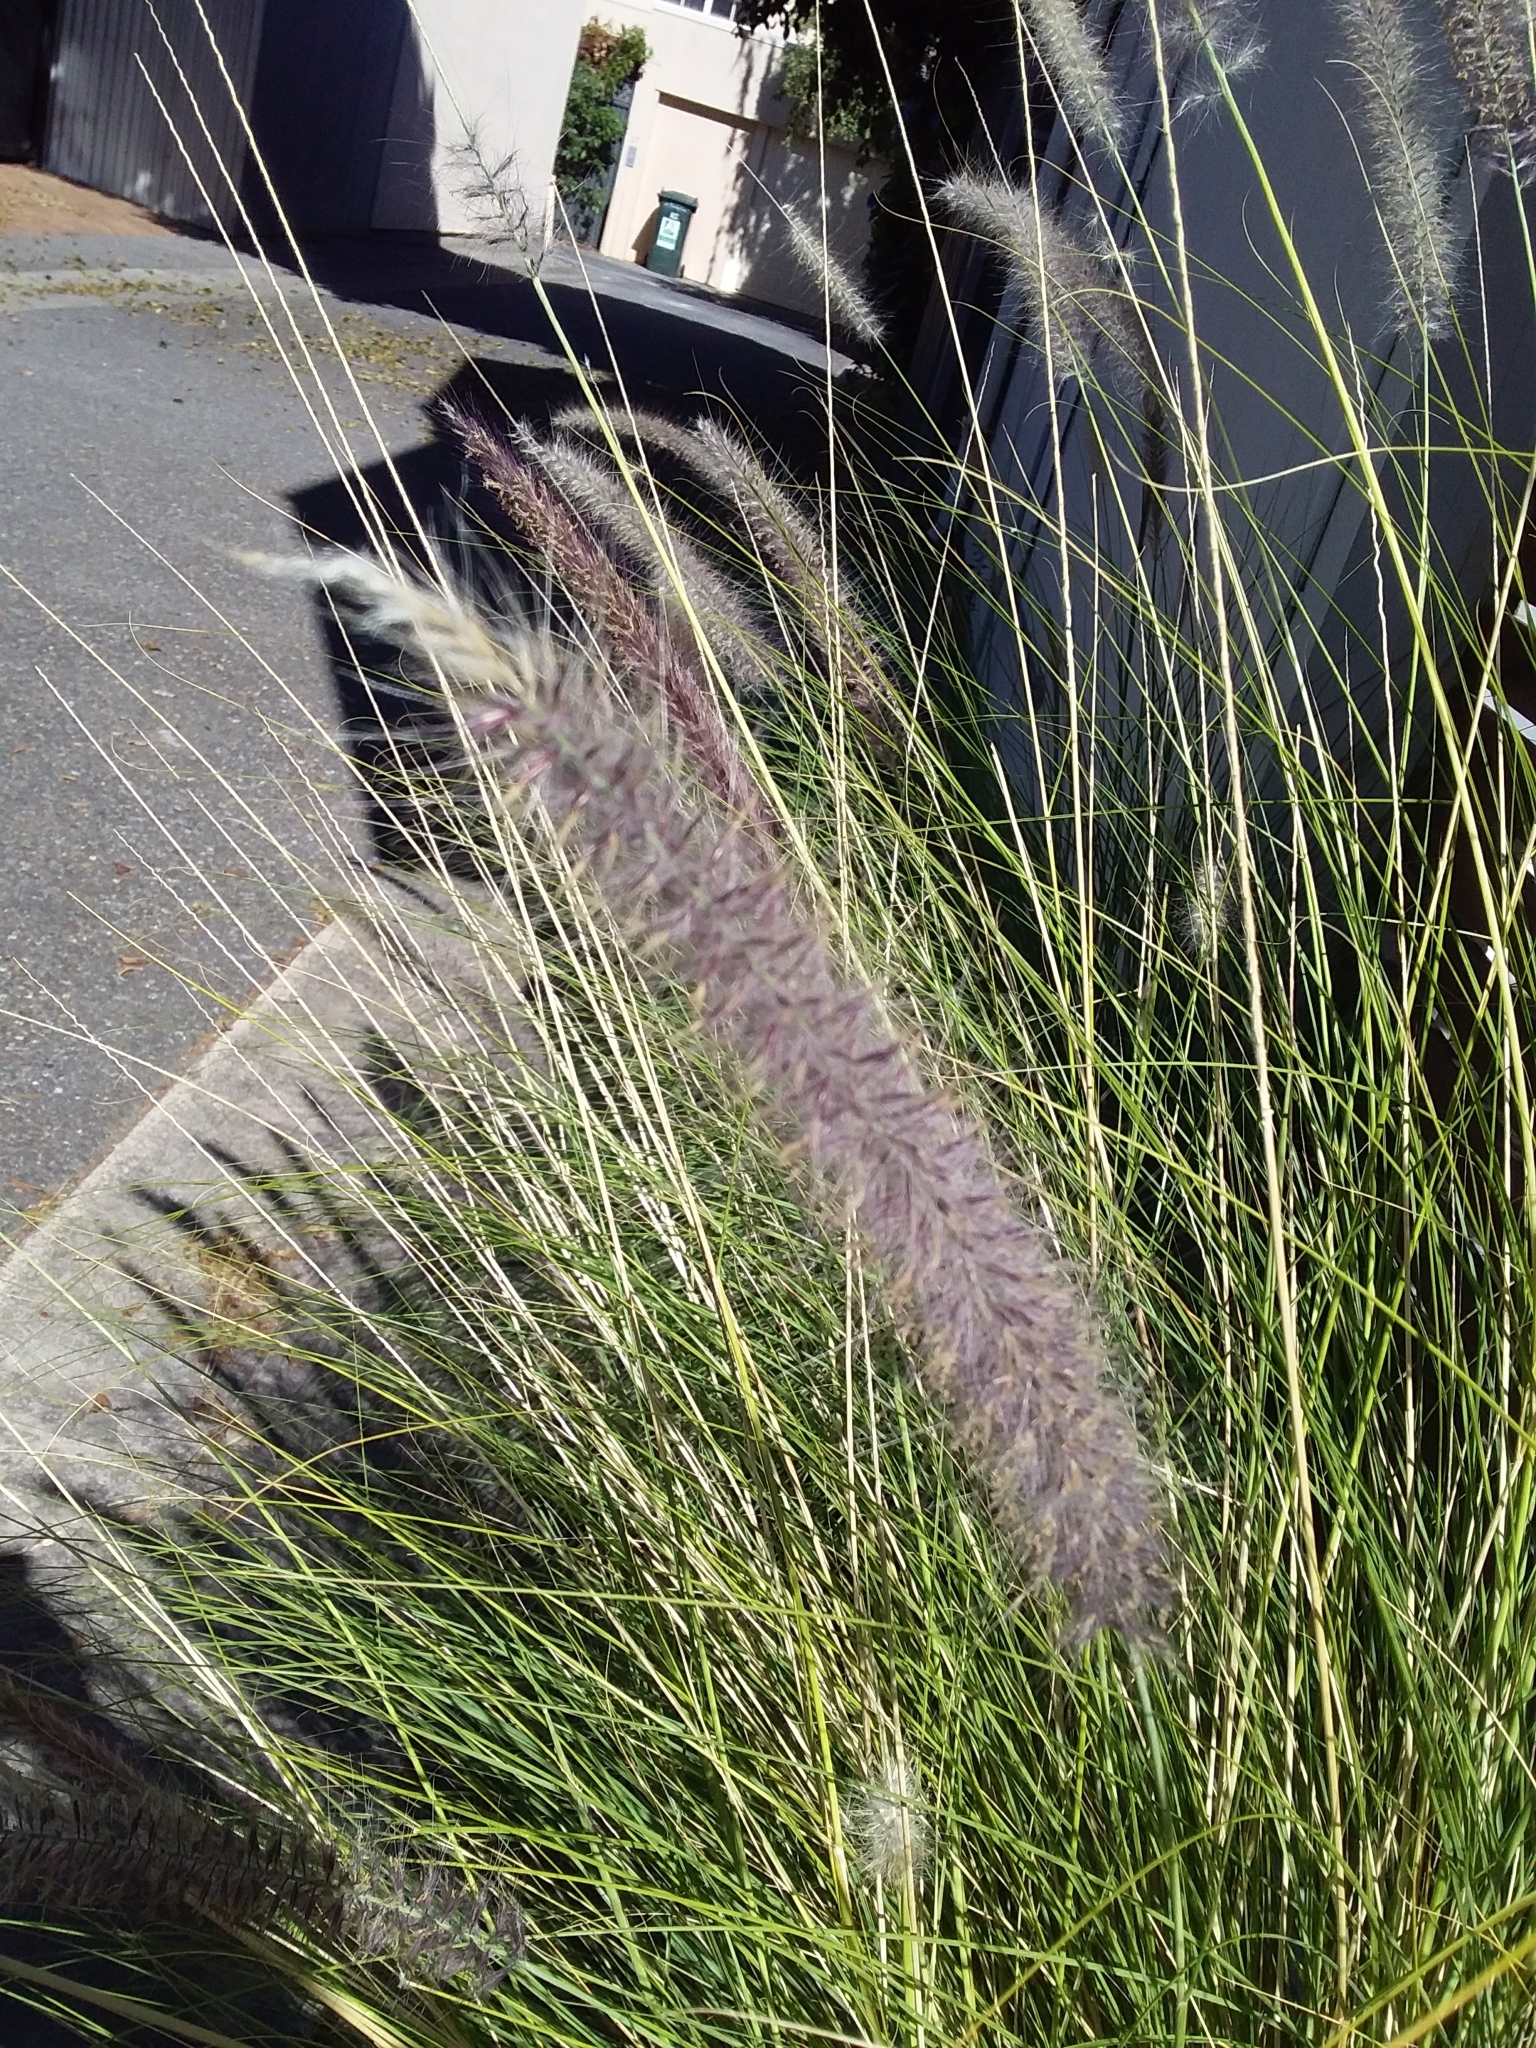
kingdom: Plantae
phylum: Tracheophyta
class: Liliopsida
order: Poales
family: Poaceae
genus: Cenchrus
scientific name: Cenchrus setaceus
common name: Crimson fountaingrass
